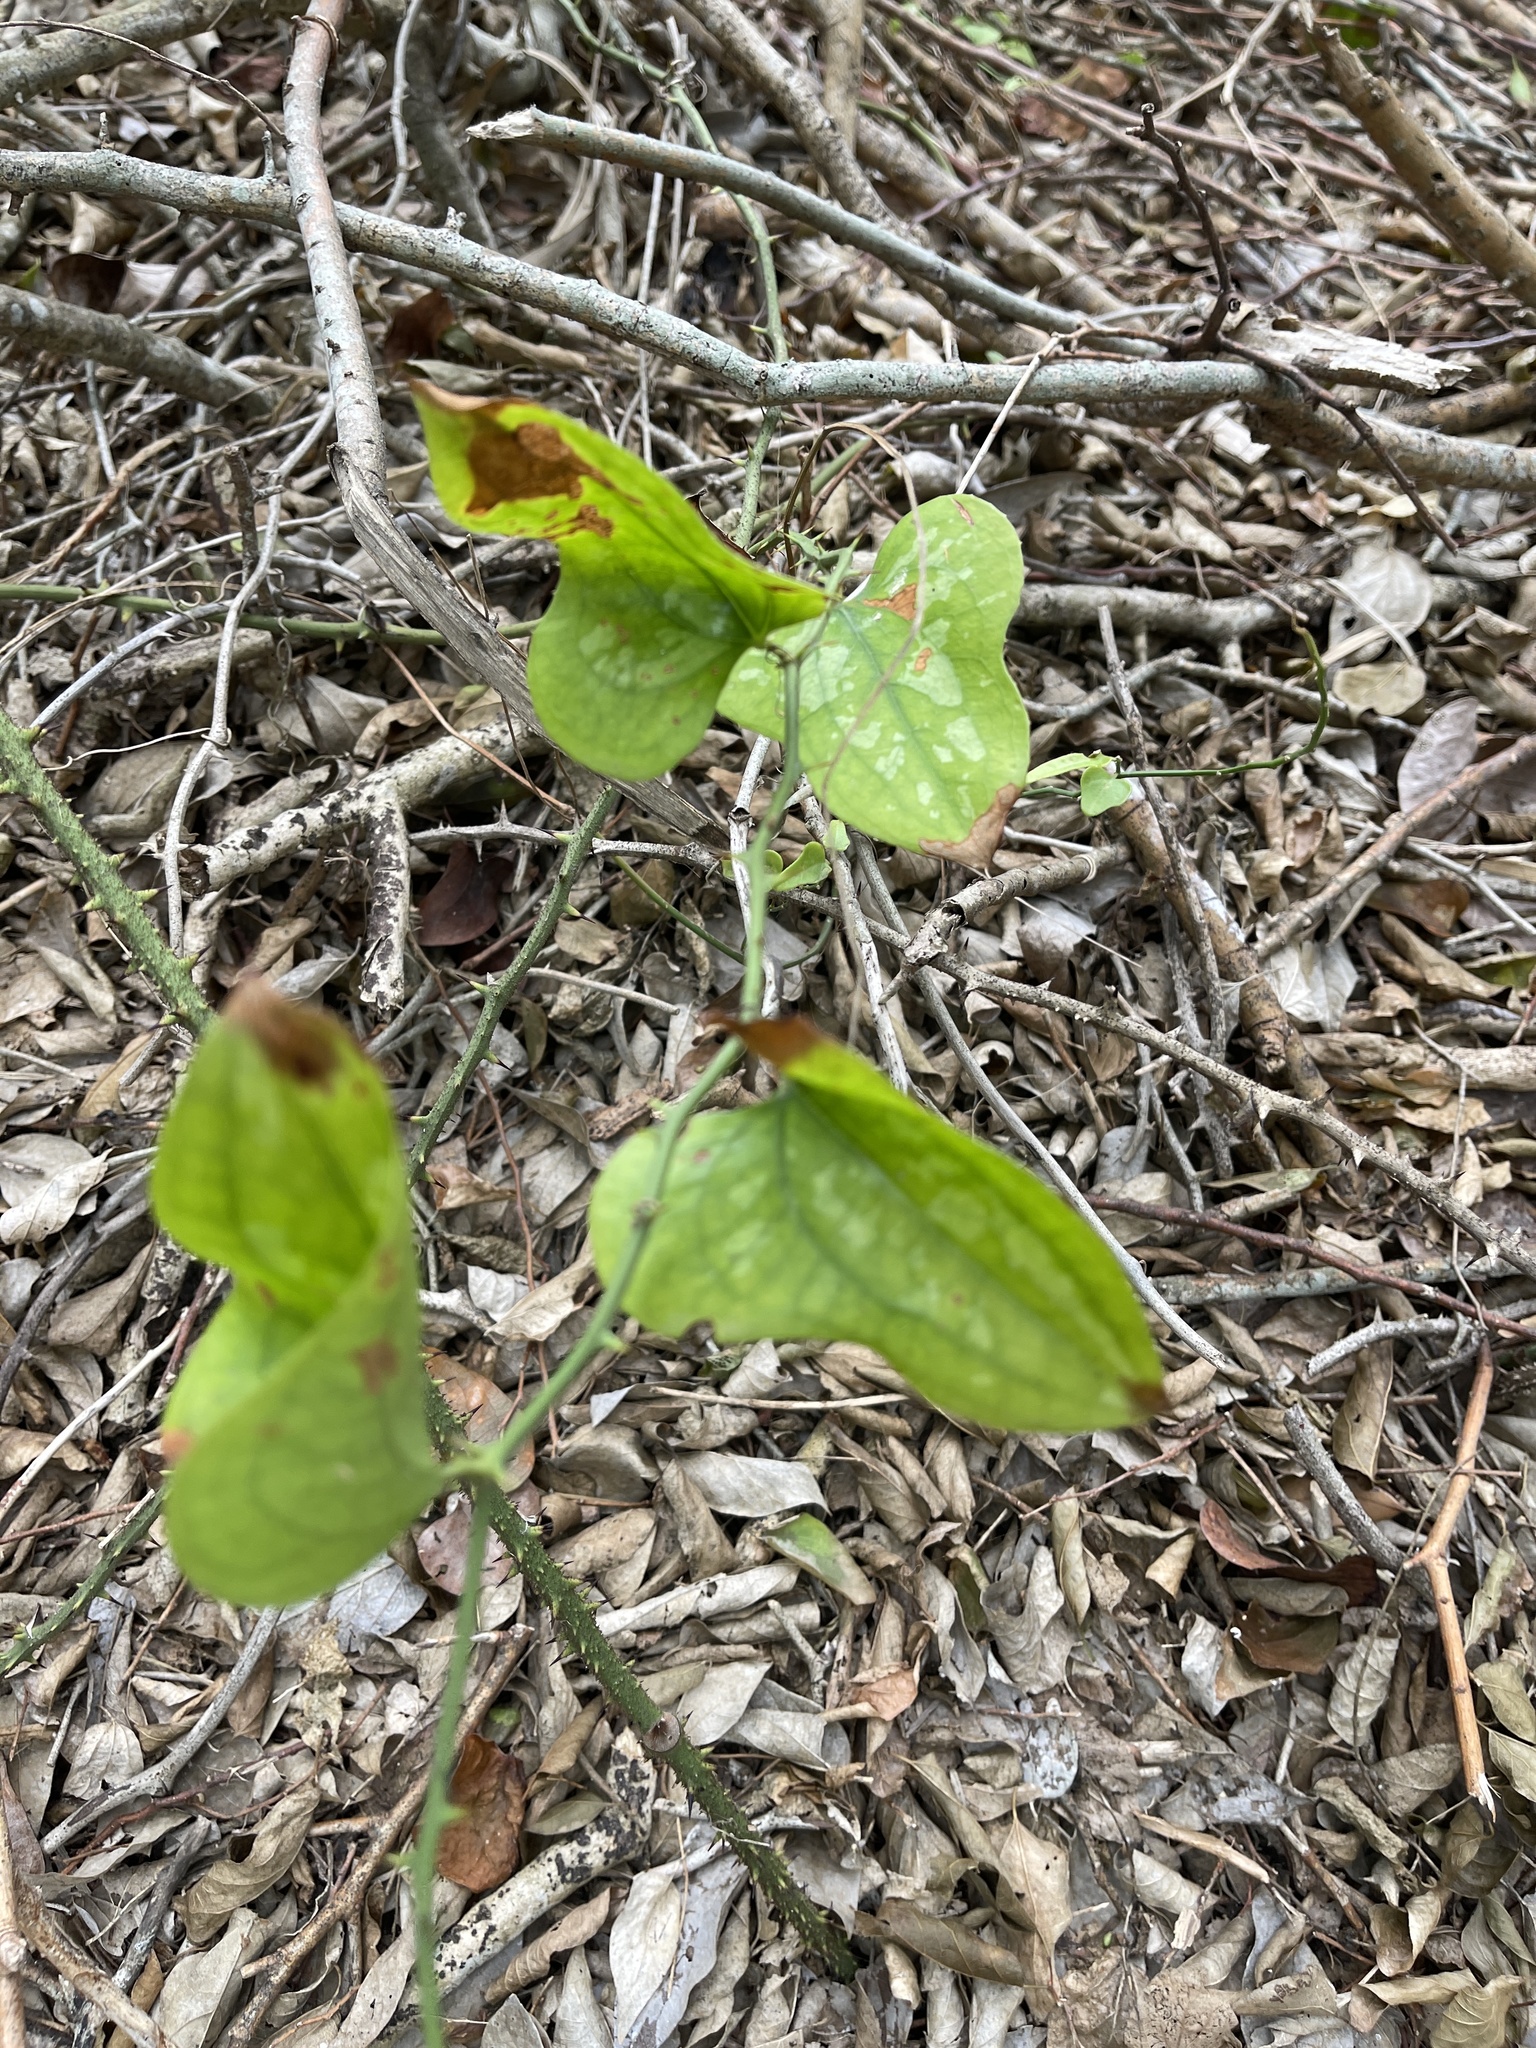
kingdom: Plantae
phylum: Tracheophyta
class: Liliopsida
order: Liliales
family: Smilacaceae
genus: Smilax
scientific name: Smilax bona-nox
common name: Catbrier
